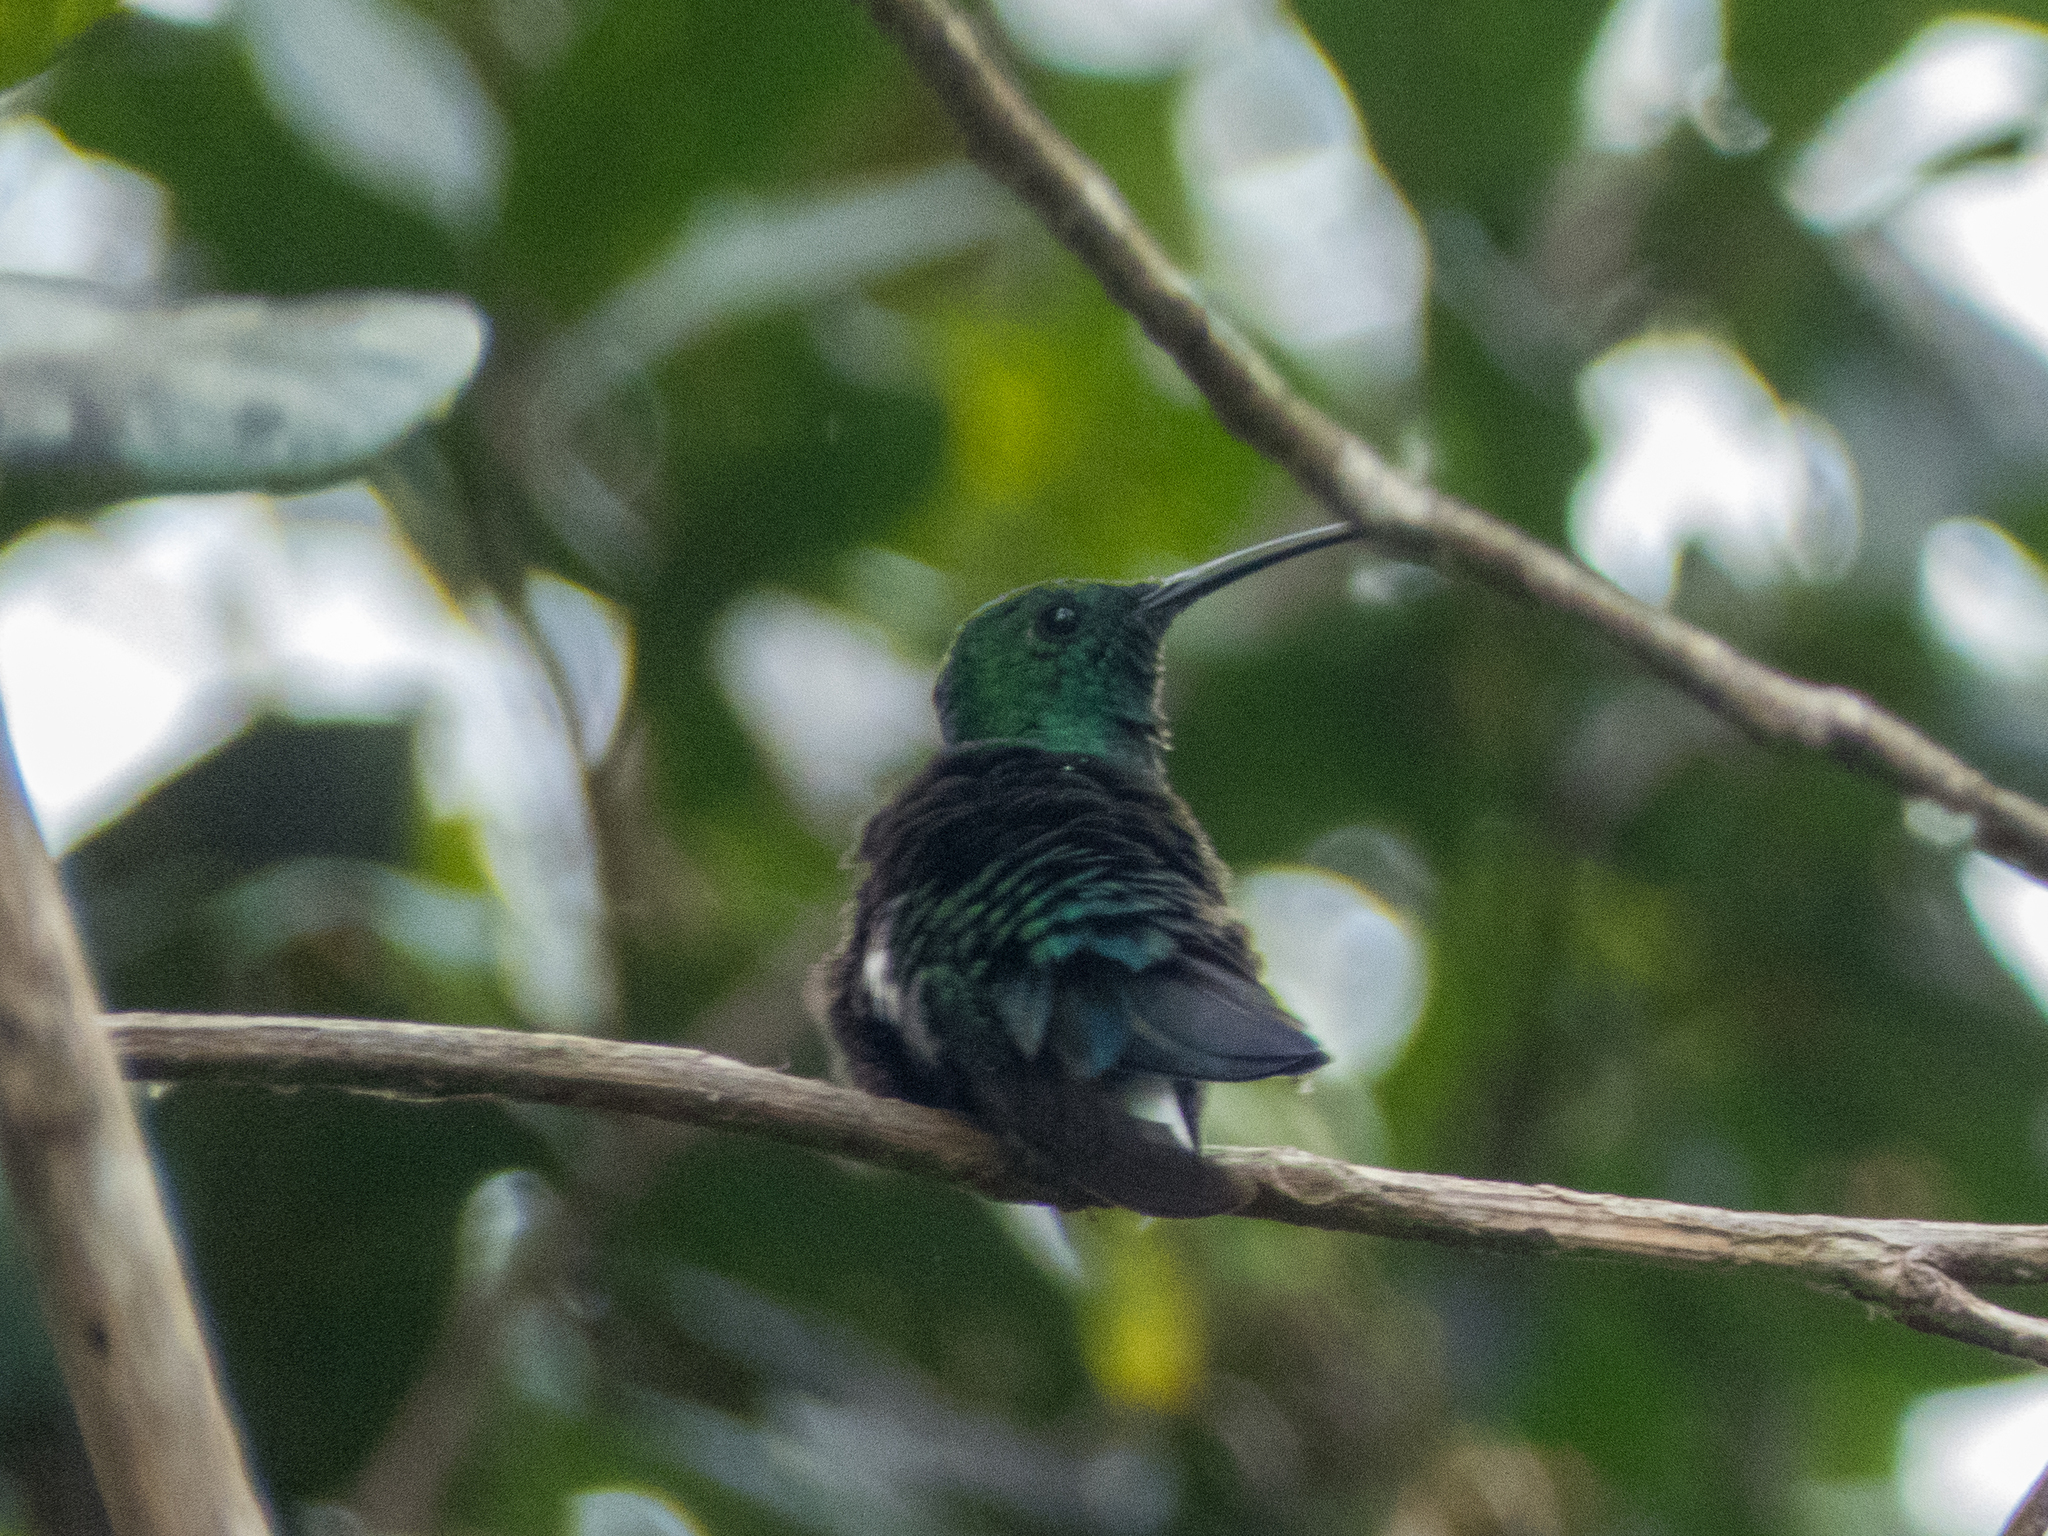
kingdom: Animalia
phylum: Chordata
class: Aves
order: Apodiformes
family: Trochilidae
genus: Eulampis
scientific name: Eulampis holosericeus
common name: Green-throated carib
